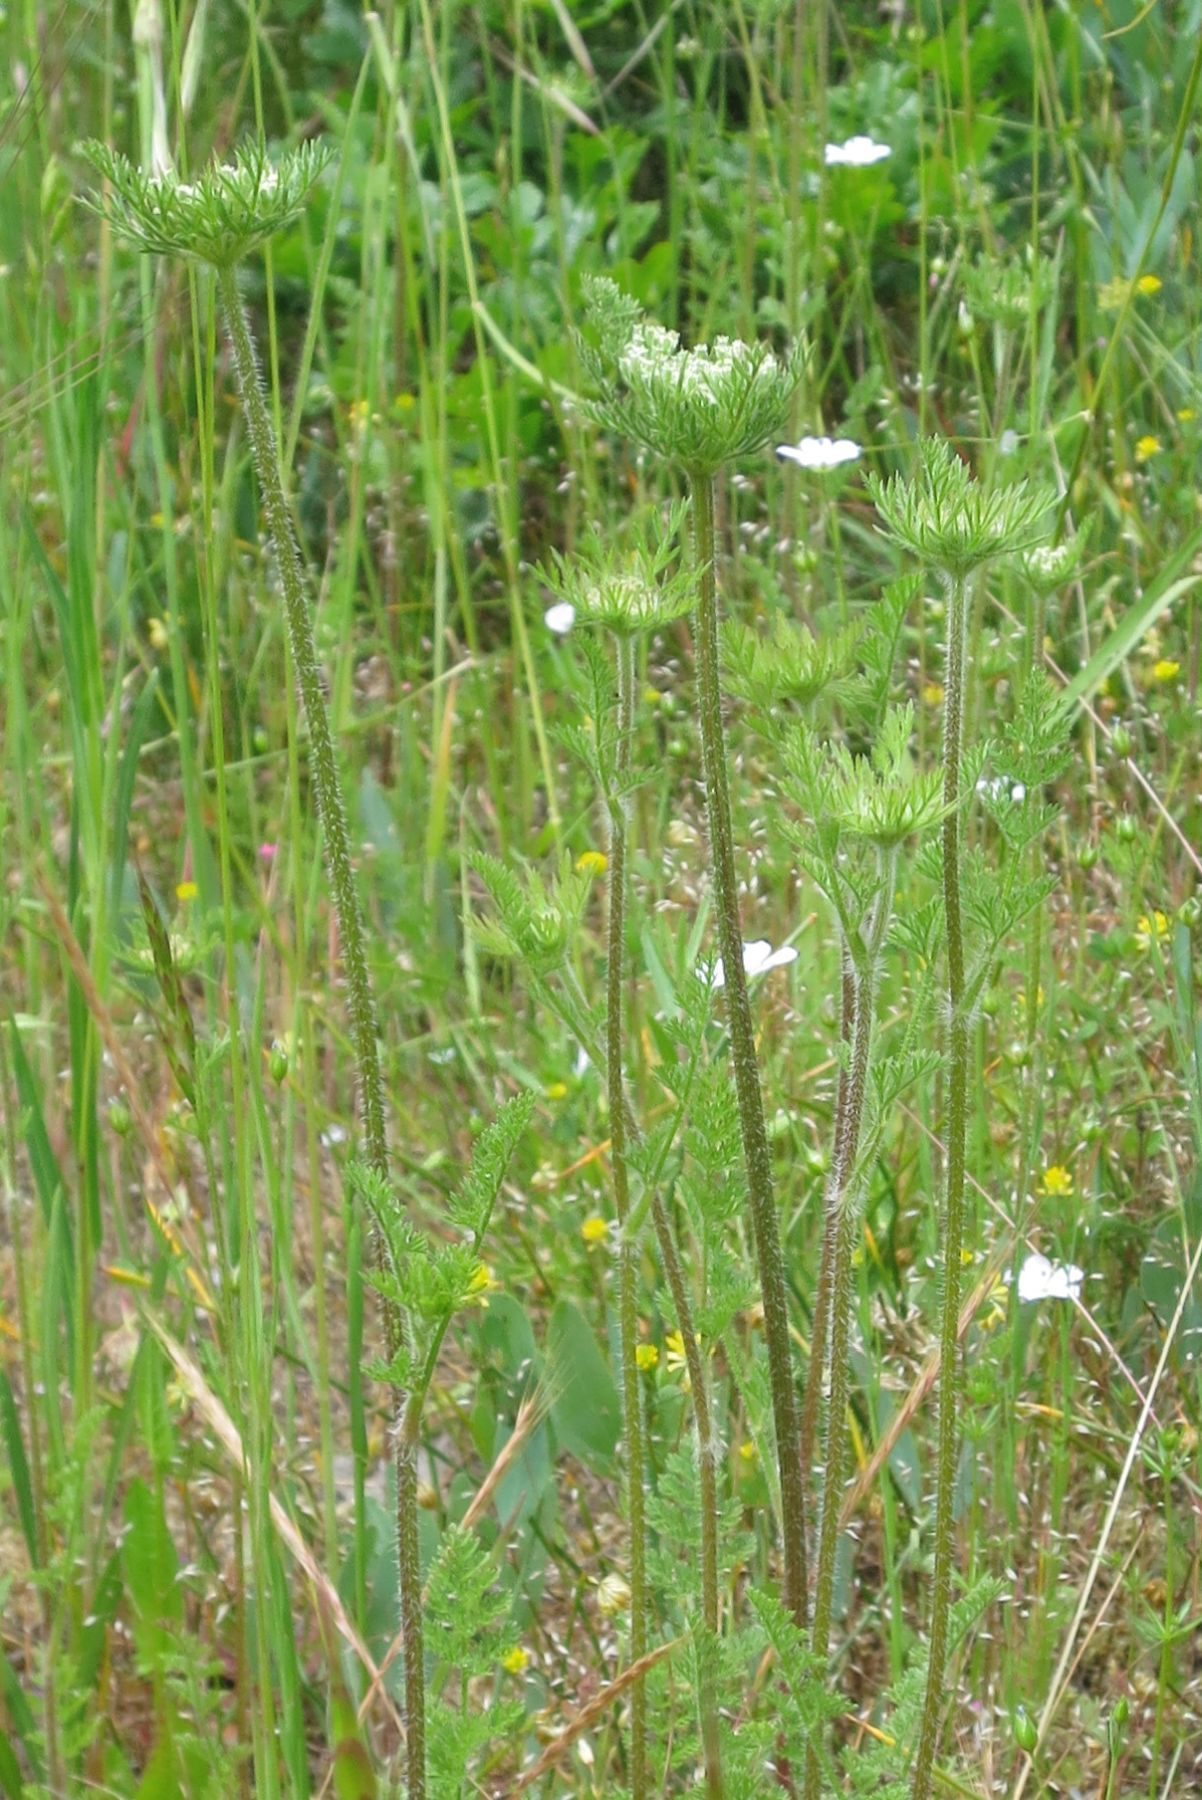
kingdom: Plantae
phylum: Tracheophyta
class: Magnoliopsida
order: Apiales
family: Apiaceae
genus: Daucus
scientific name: Daucus pusillus
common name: Southwest wild carrot
